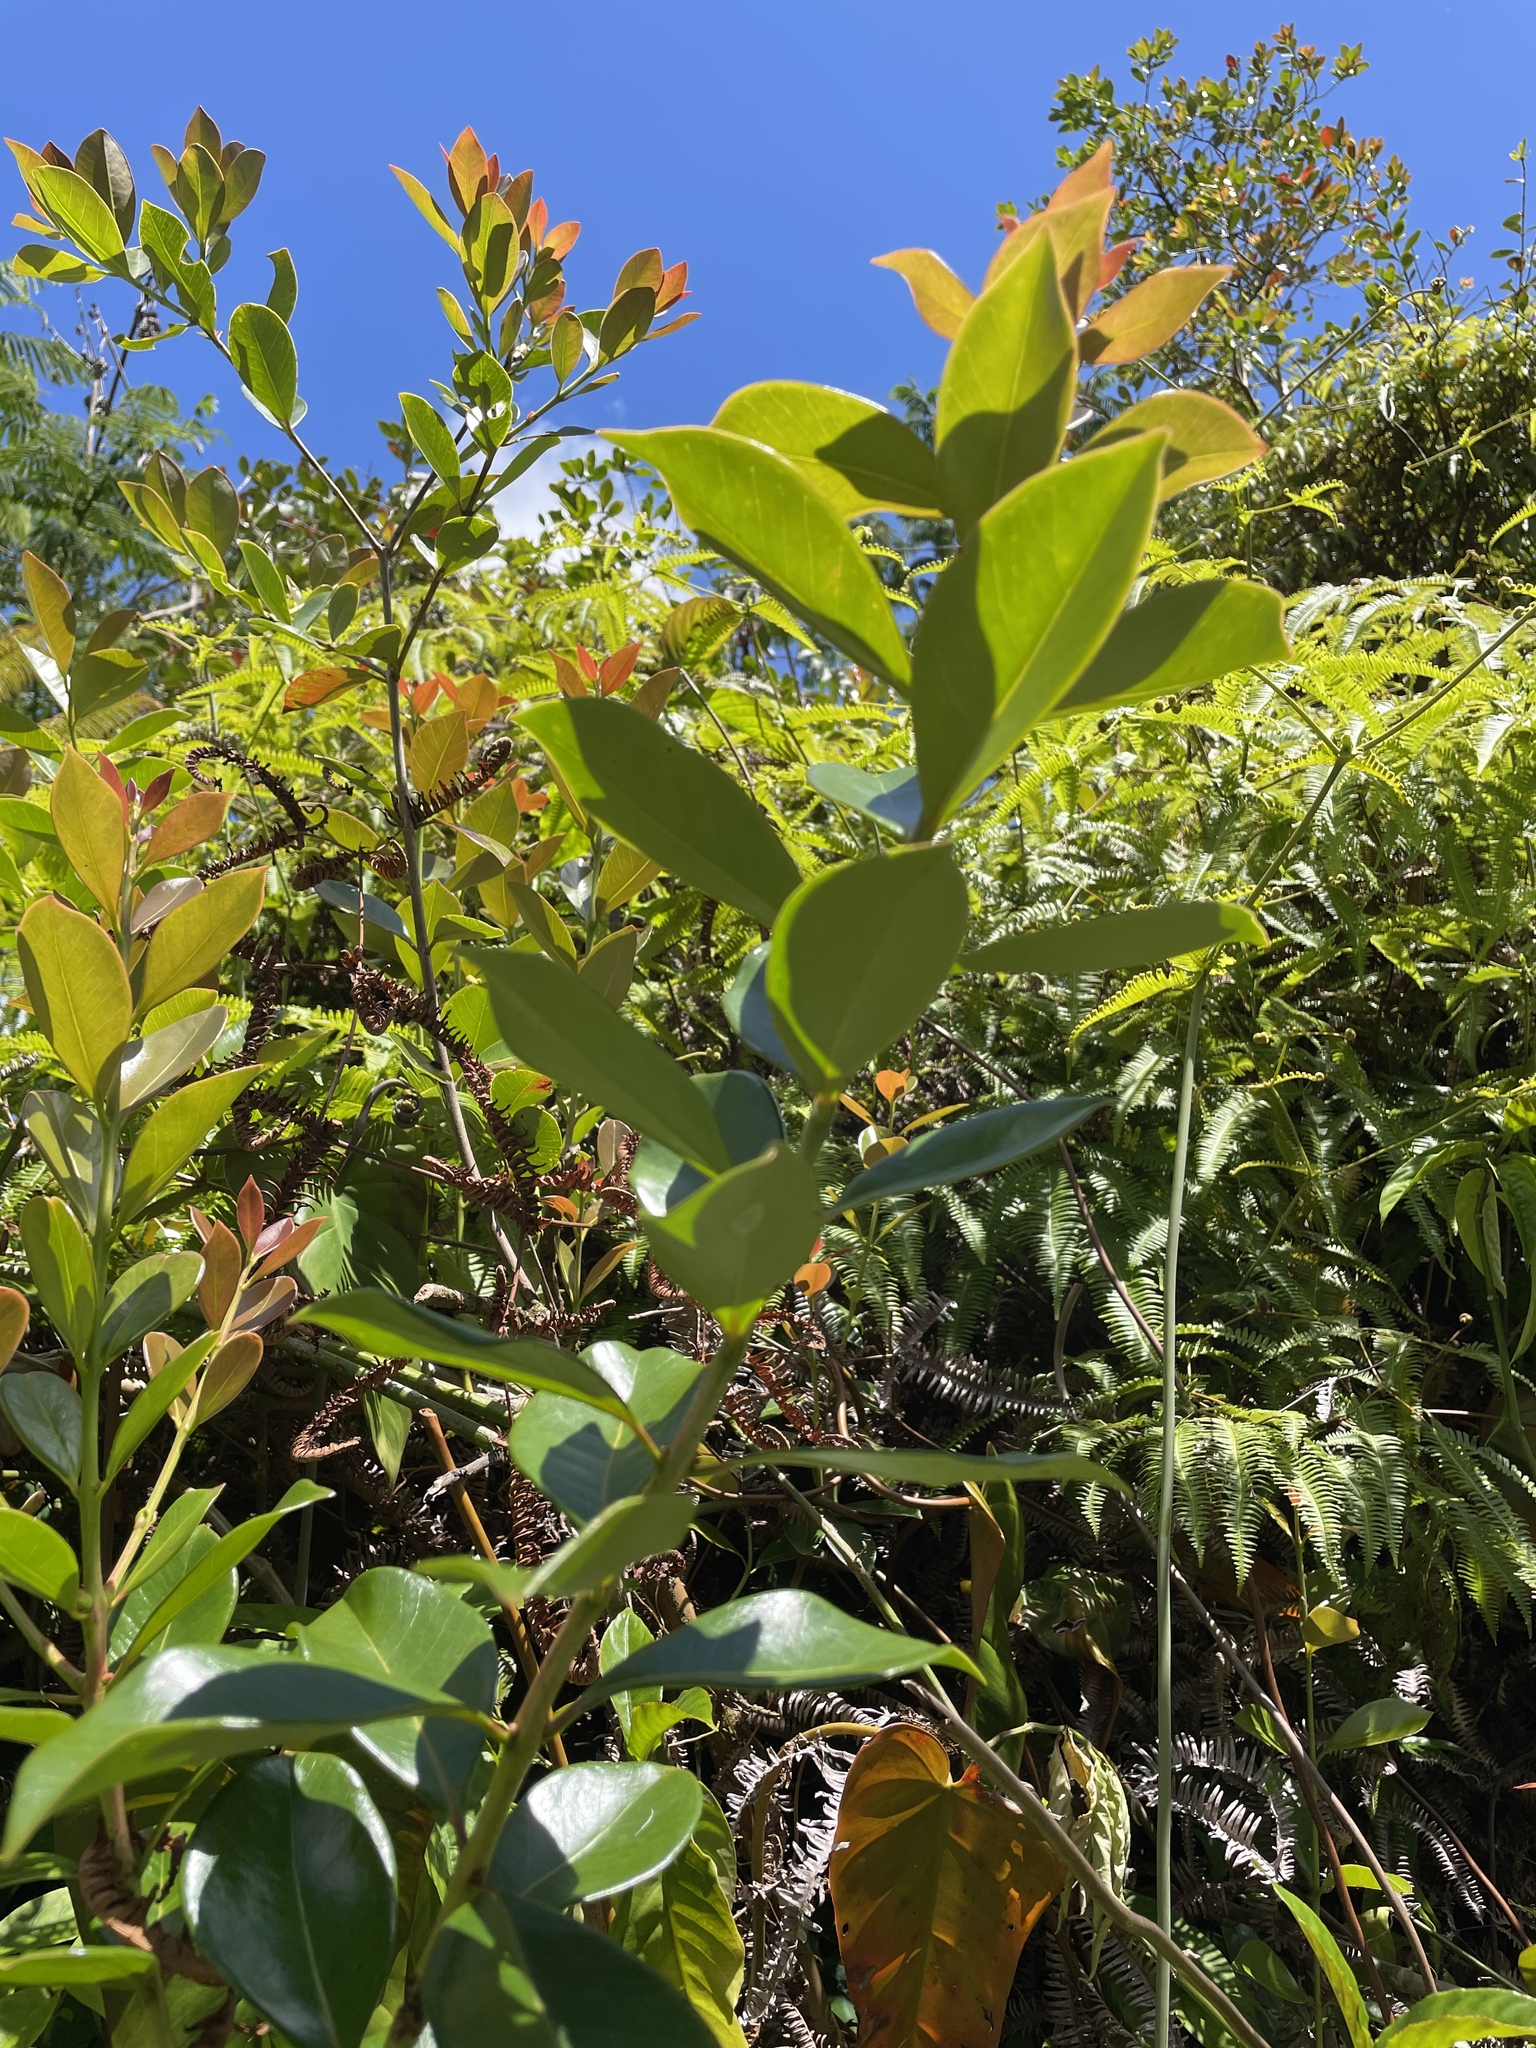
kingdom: Plantae
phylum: Tracheophyta
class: Magnoliopsida
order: Myrtales
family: Myrtaceae
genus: Psidium
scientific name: Psidium cattleianum
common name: Strawberry guava
